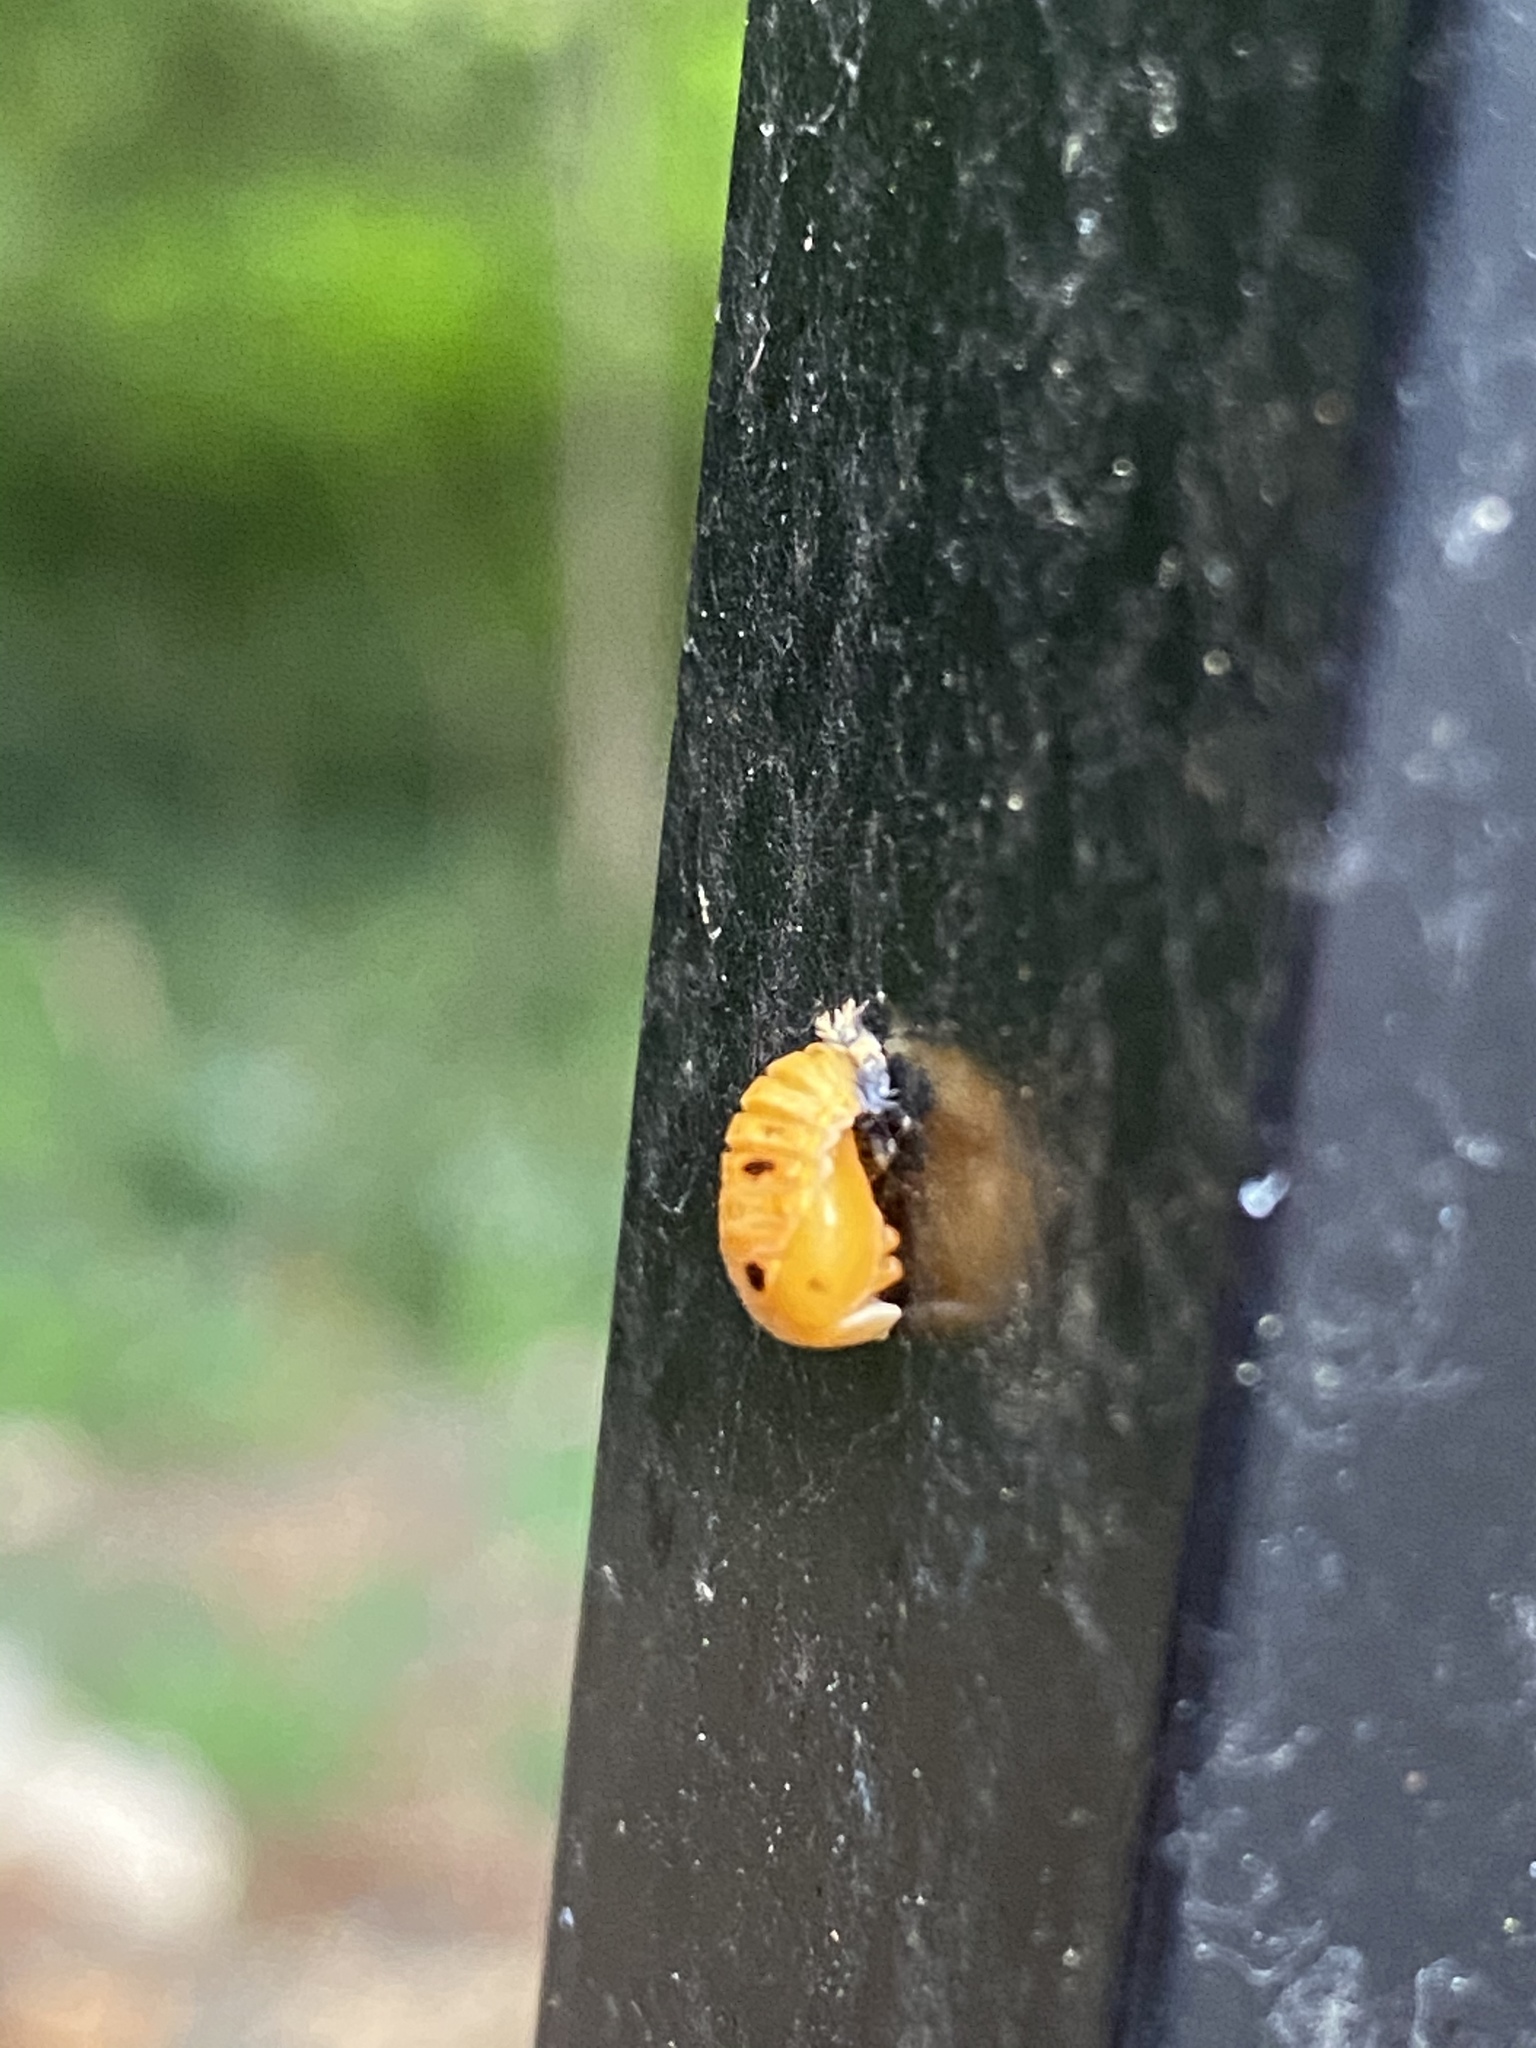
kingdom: Animalia
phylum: Arthropoda
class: Insecta
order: Coleoptera
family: Coccinellidae
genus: Harmonia
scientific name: Harmonia axyridis
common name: Harlequin ladybird
